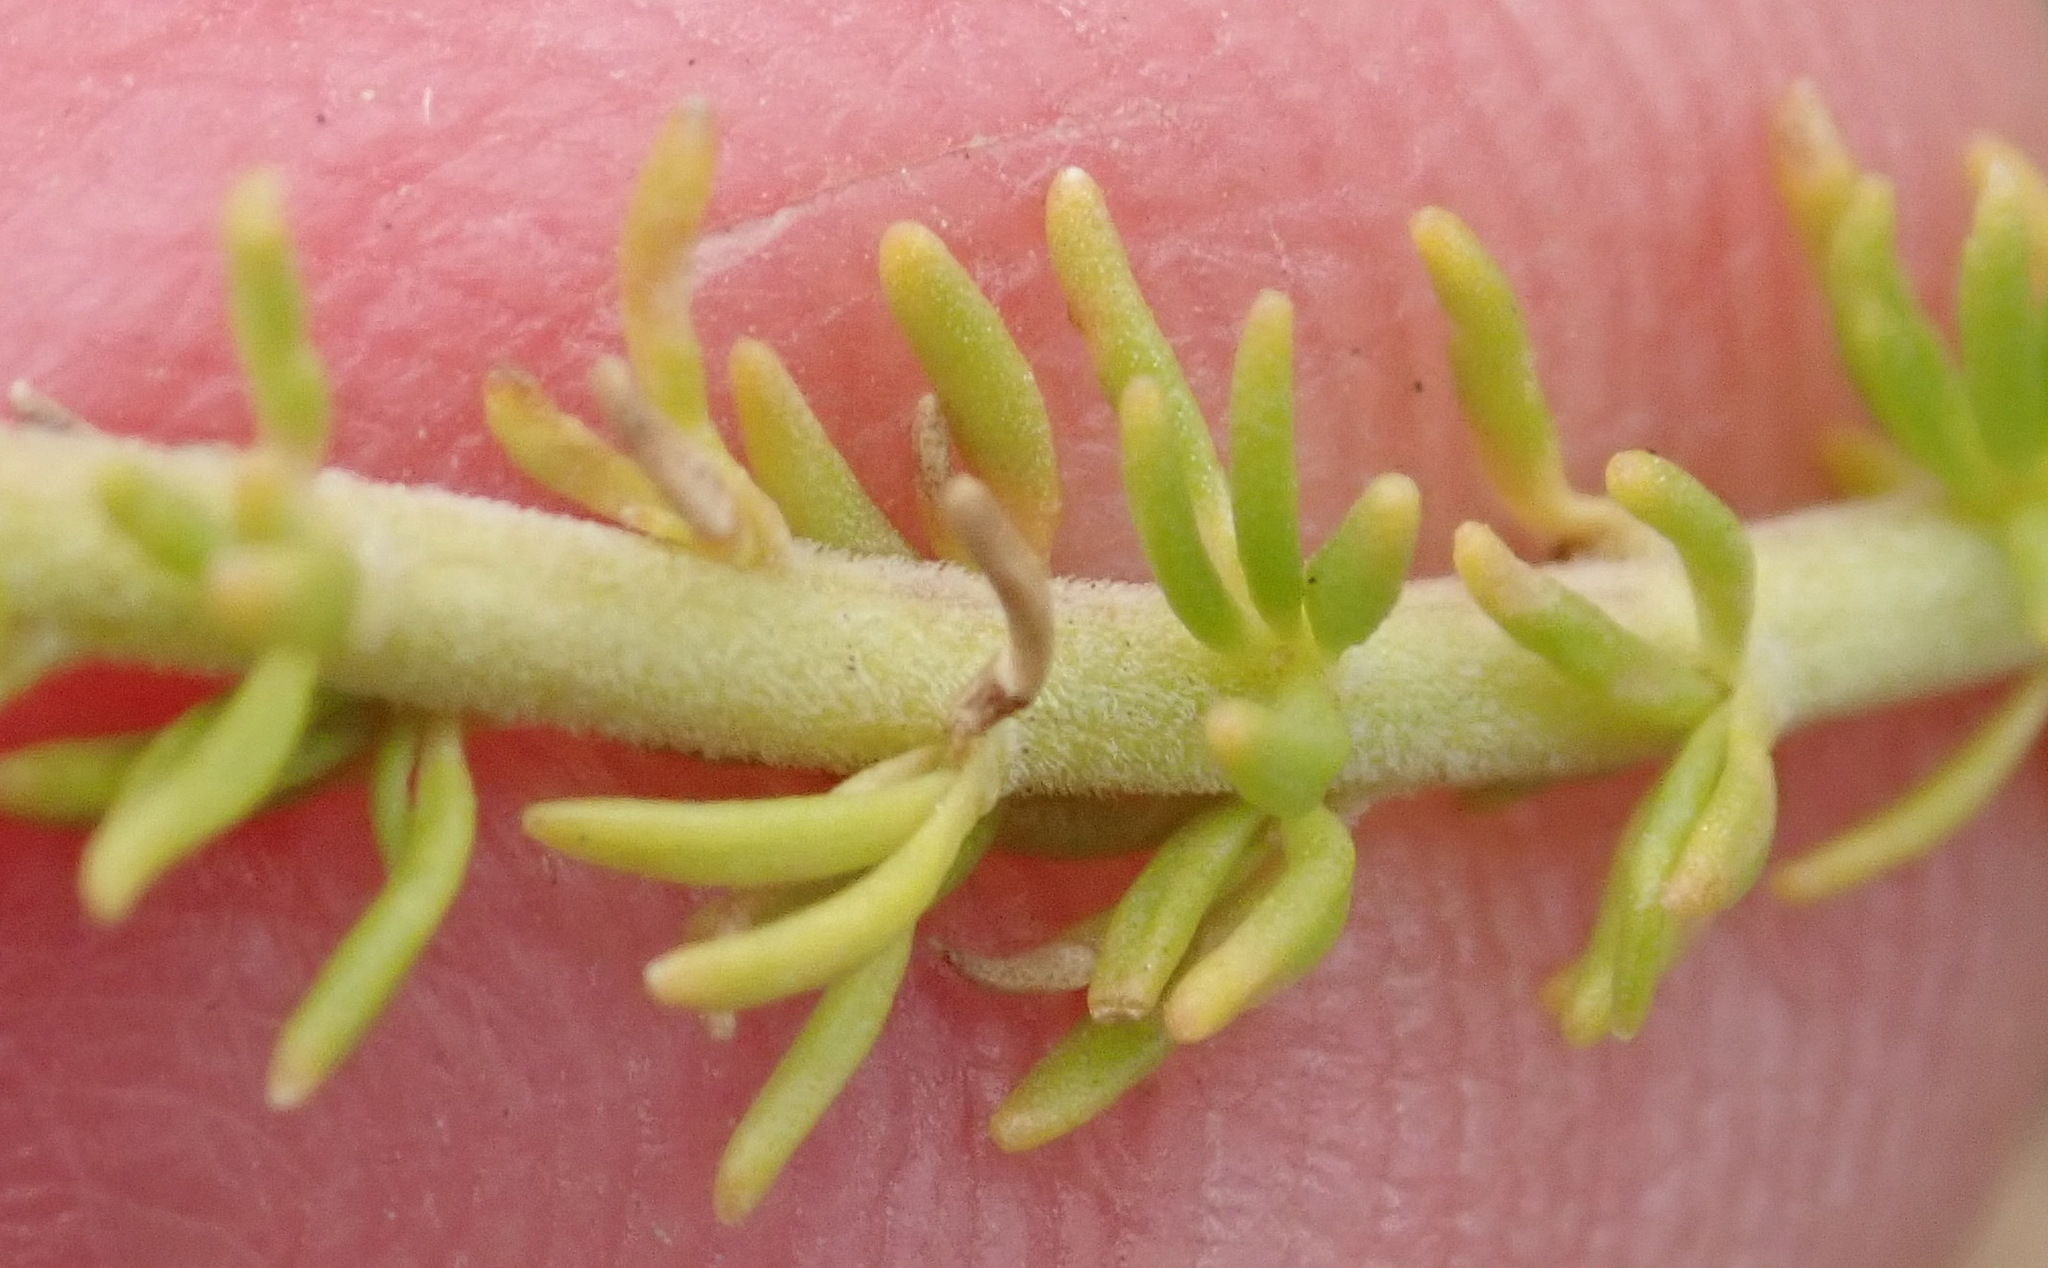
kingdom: Plantae
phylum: Tracheophyta
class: Magnoliopsida
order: Lamiales
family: Scrophulariaceae
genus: Selago
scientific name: Selago dolosa
